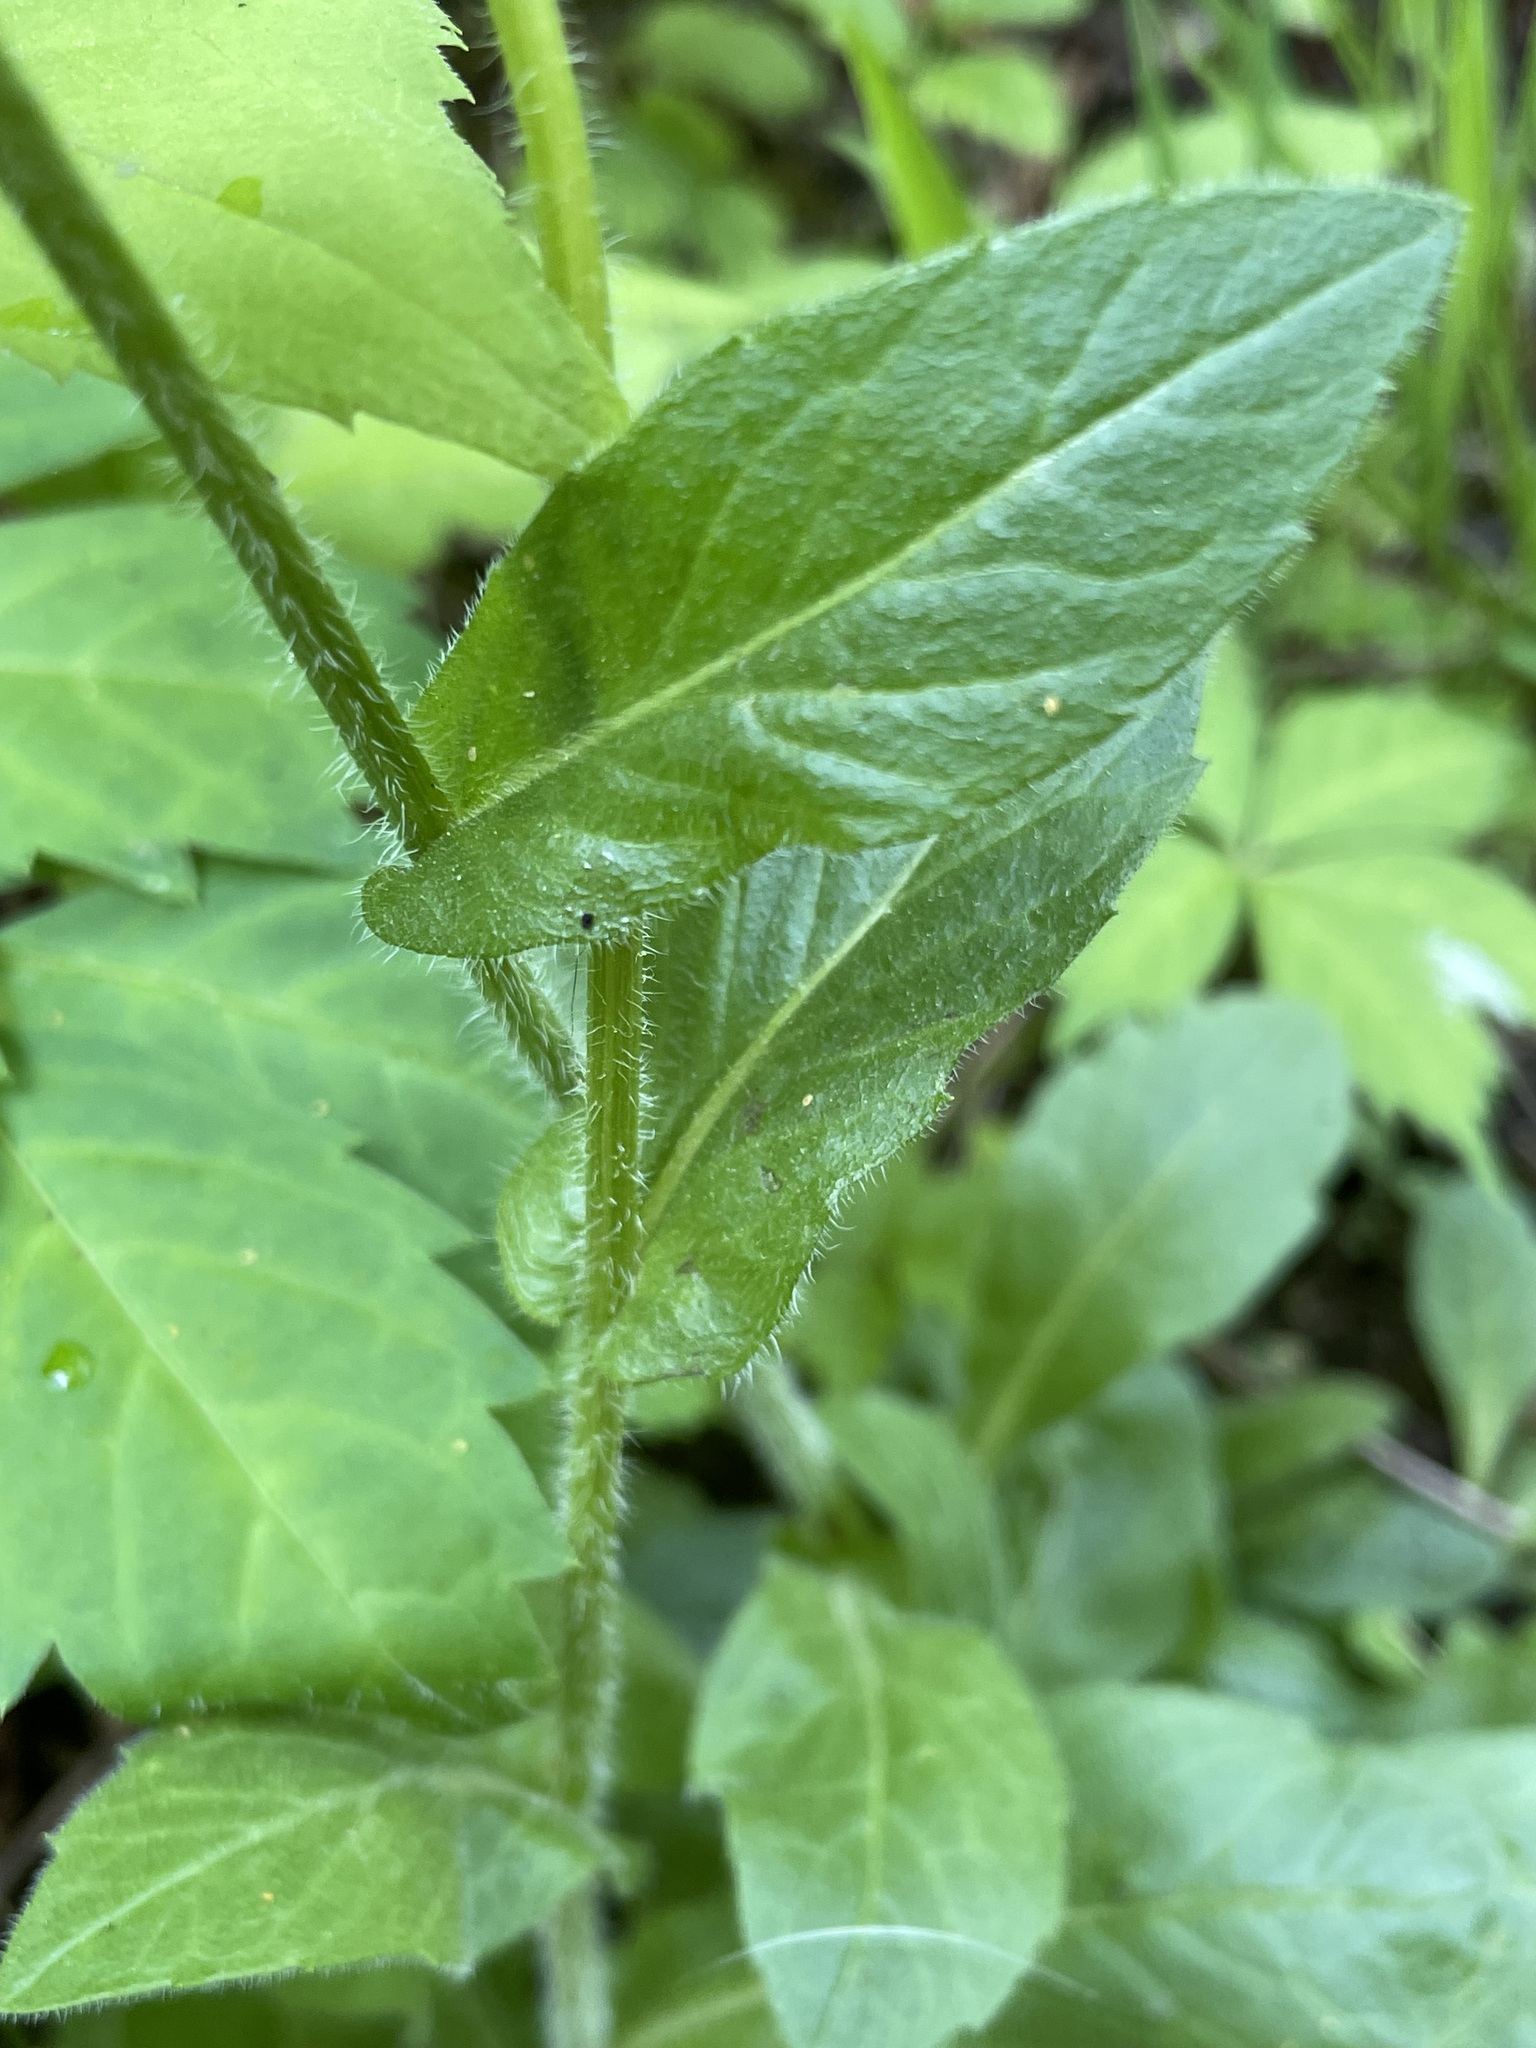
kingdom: Plantae
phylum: Tracheophyta
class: Magnoliopsida
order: Asterales
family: Asteraceae
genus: Erigeron
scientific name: Erigeron philadelphicus
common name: Robin's-plantain
